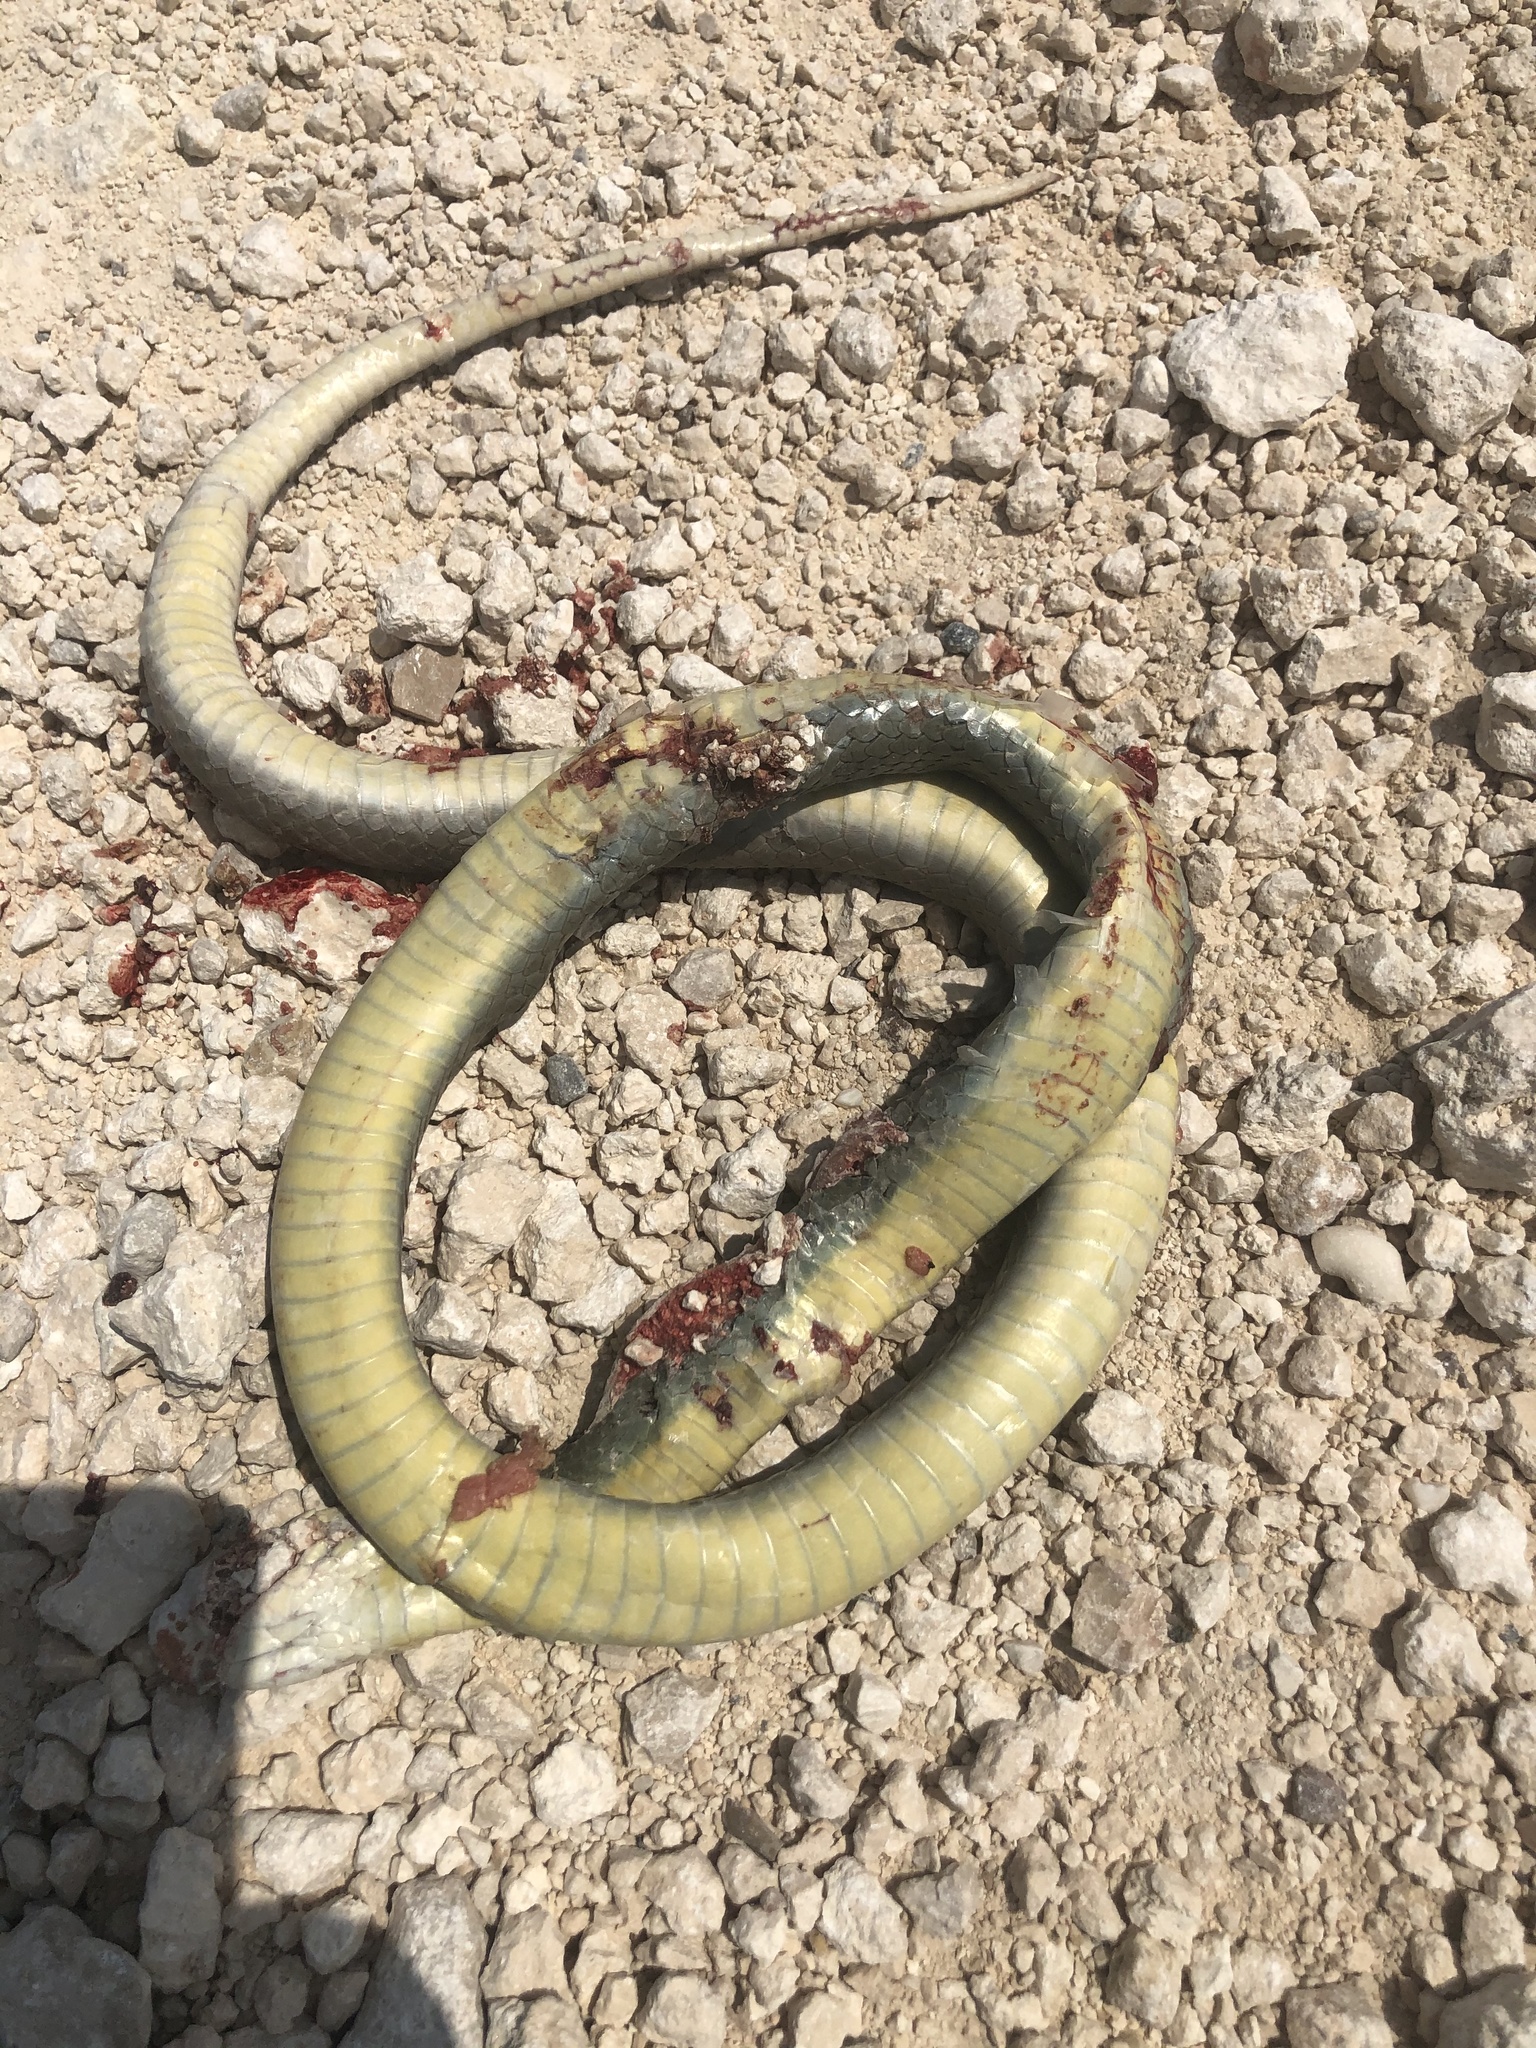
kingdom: Animalia
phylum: Chordata
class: Squamata
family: Colubridae
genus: Coluber
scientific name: Coluber constrictor
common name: Eastern racer
